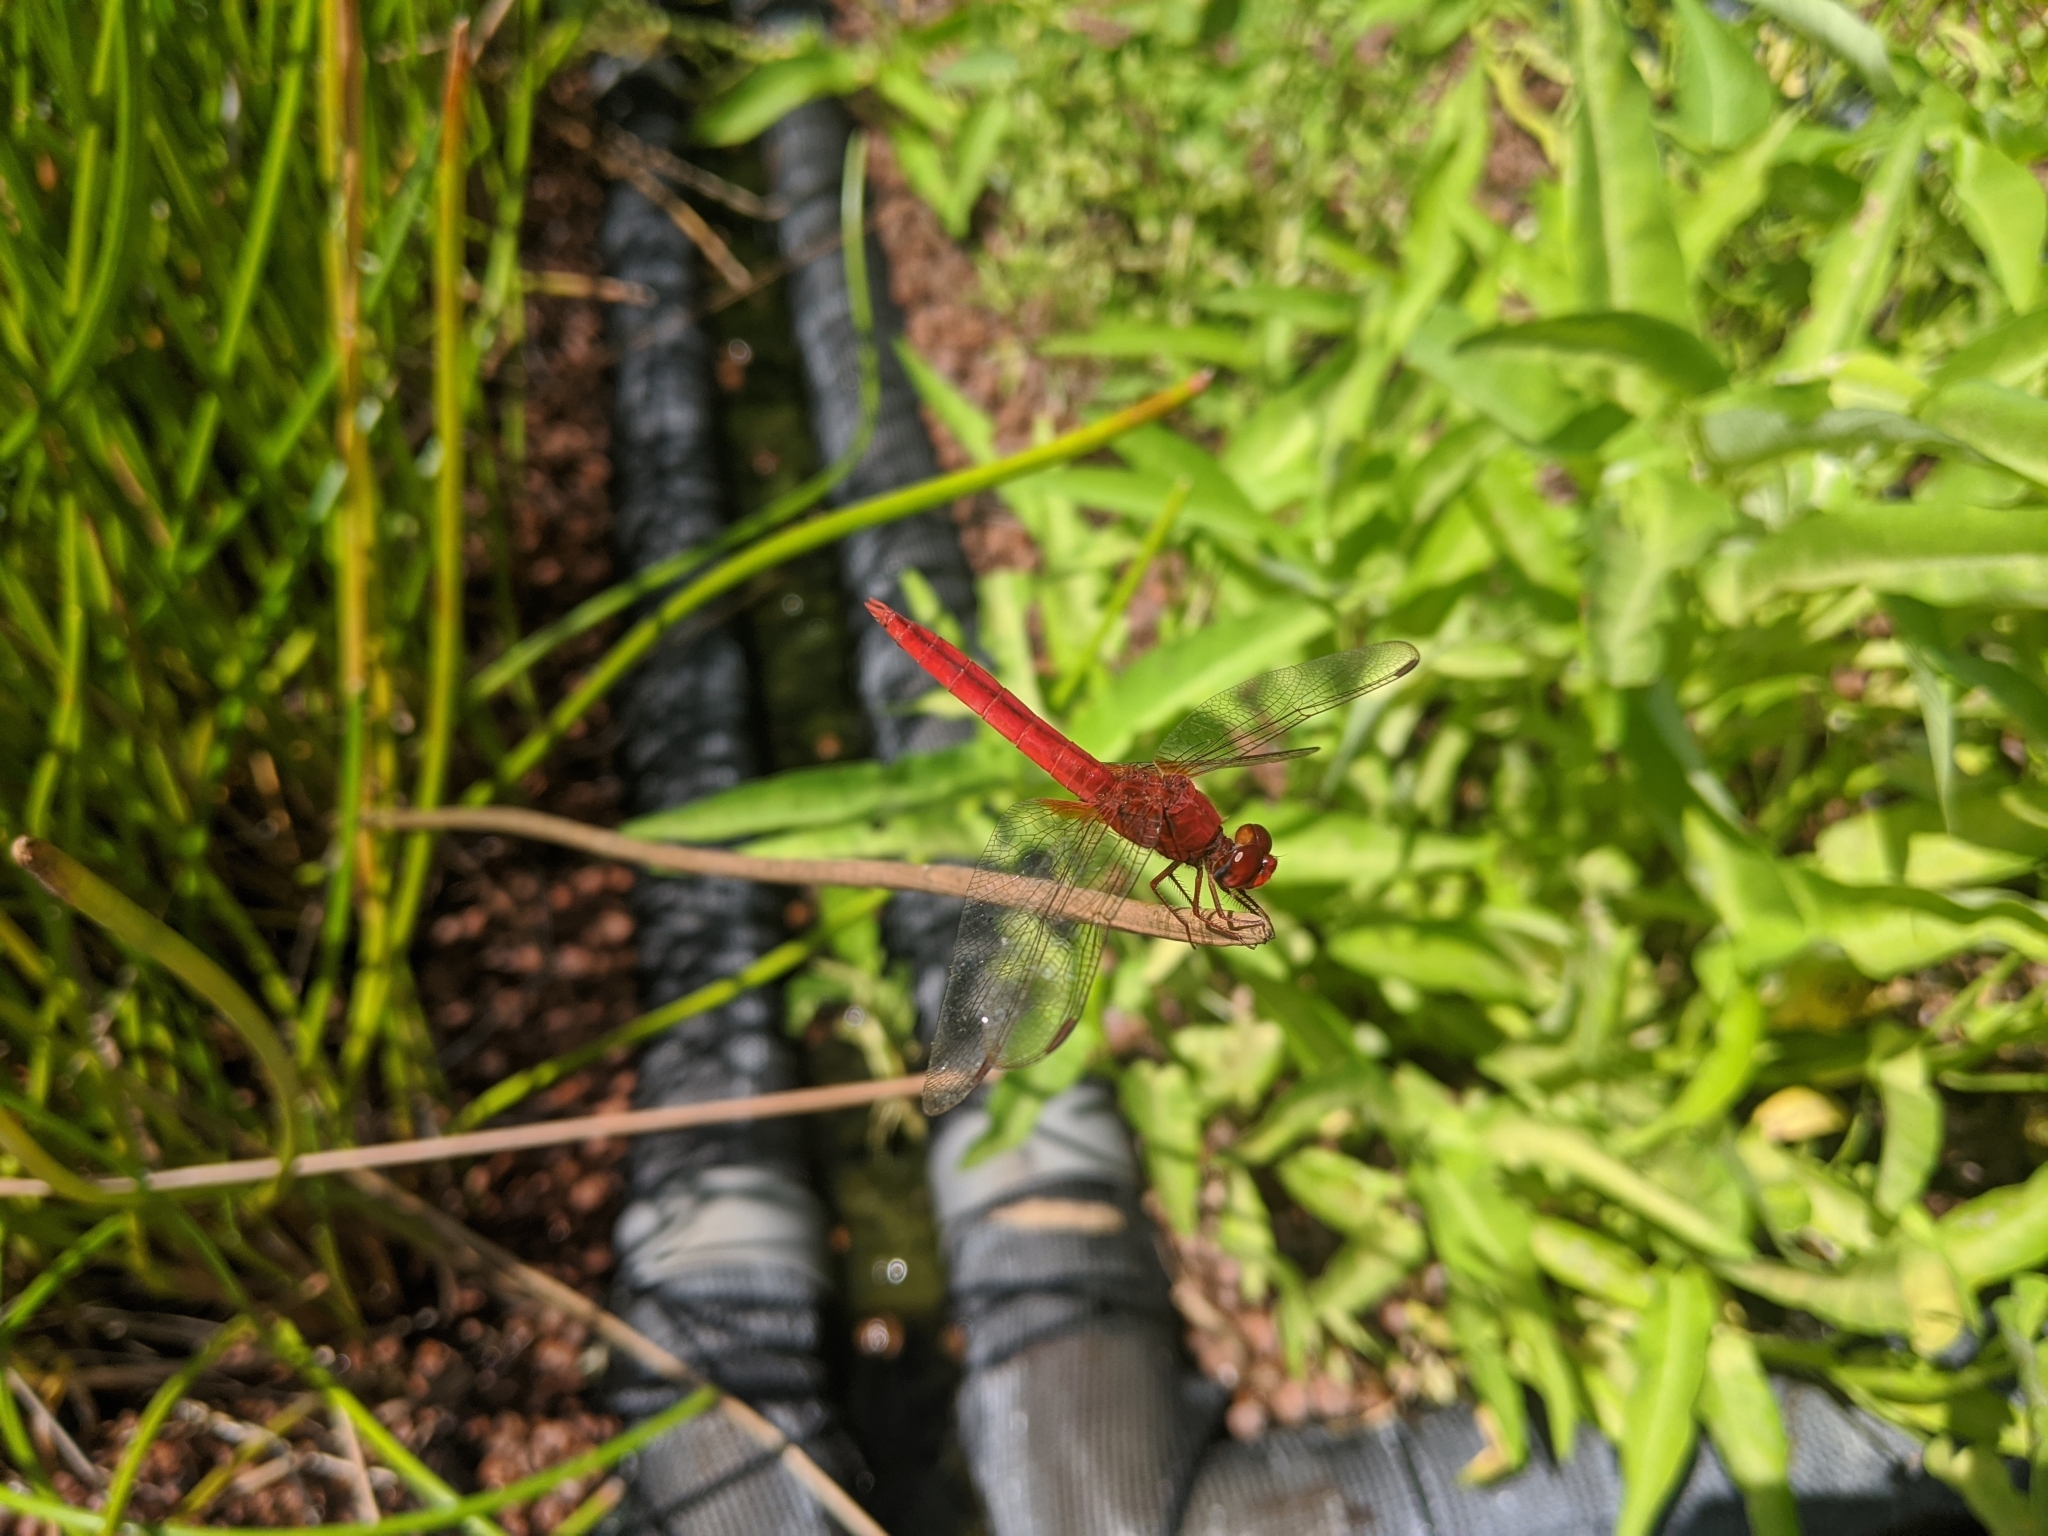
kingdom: Animalia
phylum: Arthropoda
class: Insecta
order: Odonata
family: Libellulidae
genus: Crocothemis
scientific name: Crocothemis servilia
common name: Scarlet skimmer
